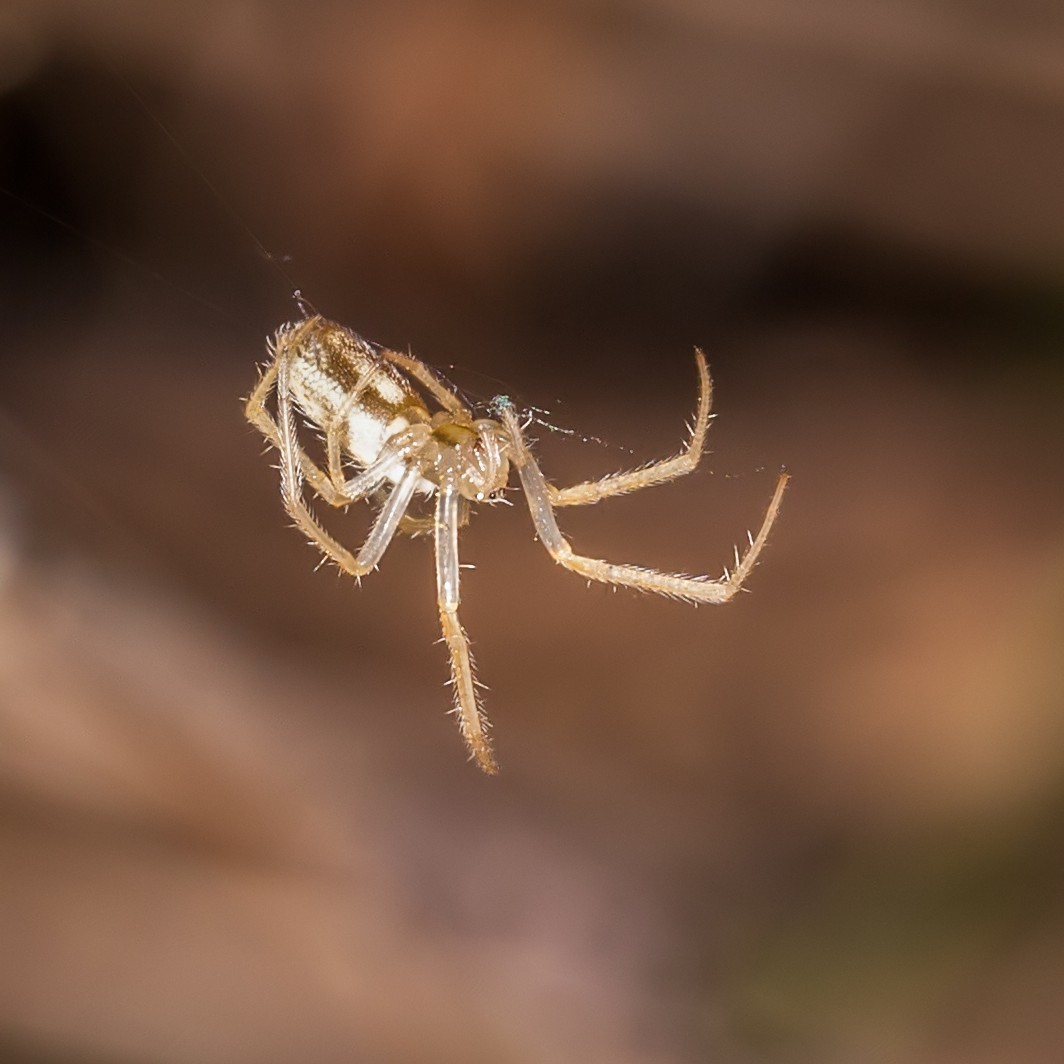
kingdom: Animalia
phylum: Arthropoda
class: Arachnida
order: Araneae
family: Araneidae
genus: Larinia
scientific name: Larinia directa
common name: Orb weavers
